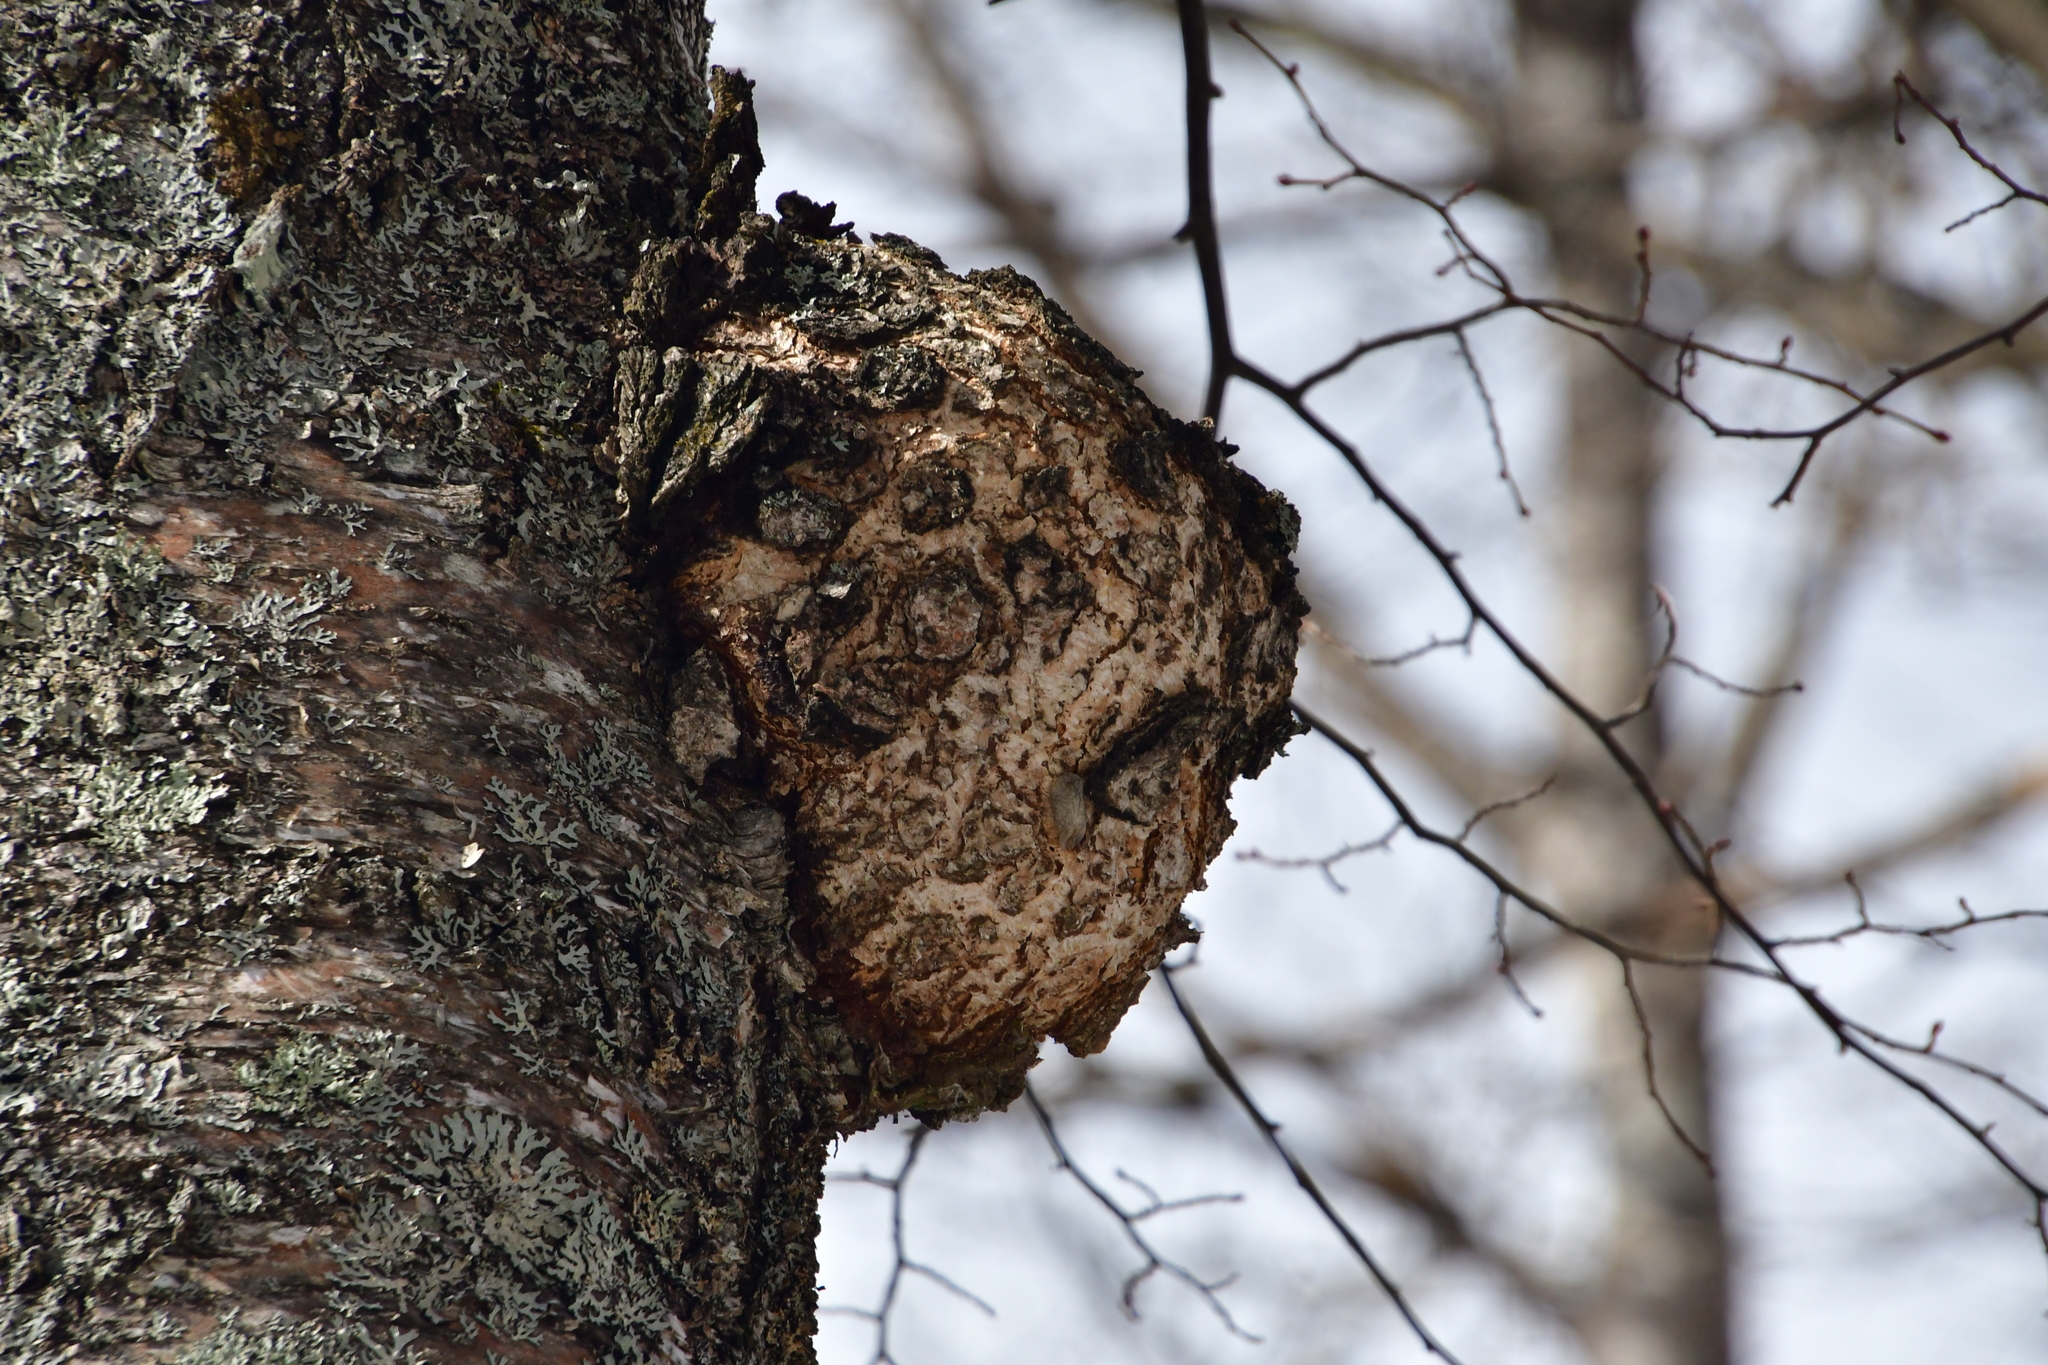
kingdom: Bacteria
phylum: Proteobacteria
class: Alphaproteobacteria
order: Rhizobiales
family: Rhizobiaceae
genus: Rhizobium
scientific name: Rhizobium Agrobacterium radiobacter
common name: Bacterial crown gall
